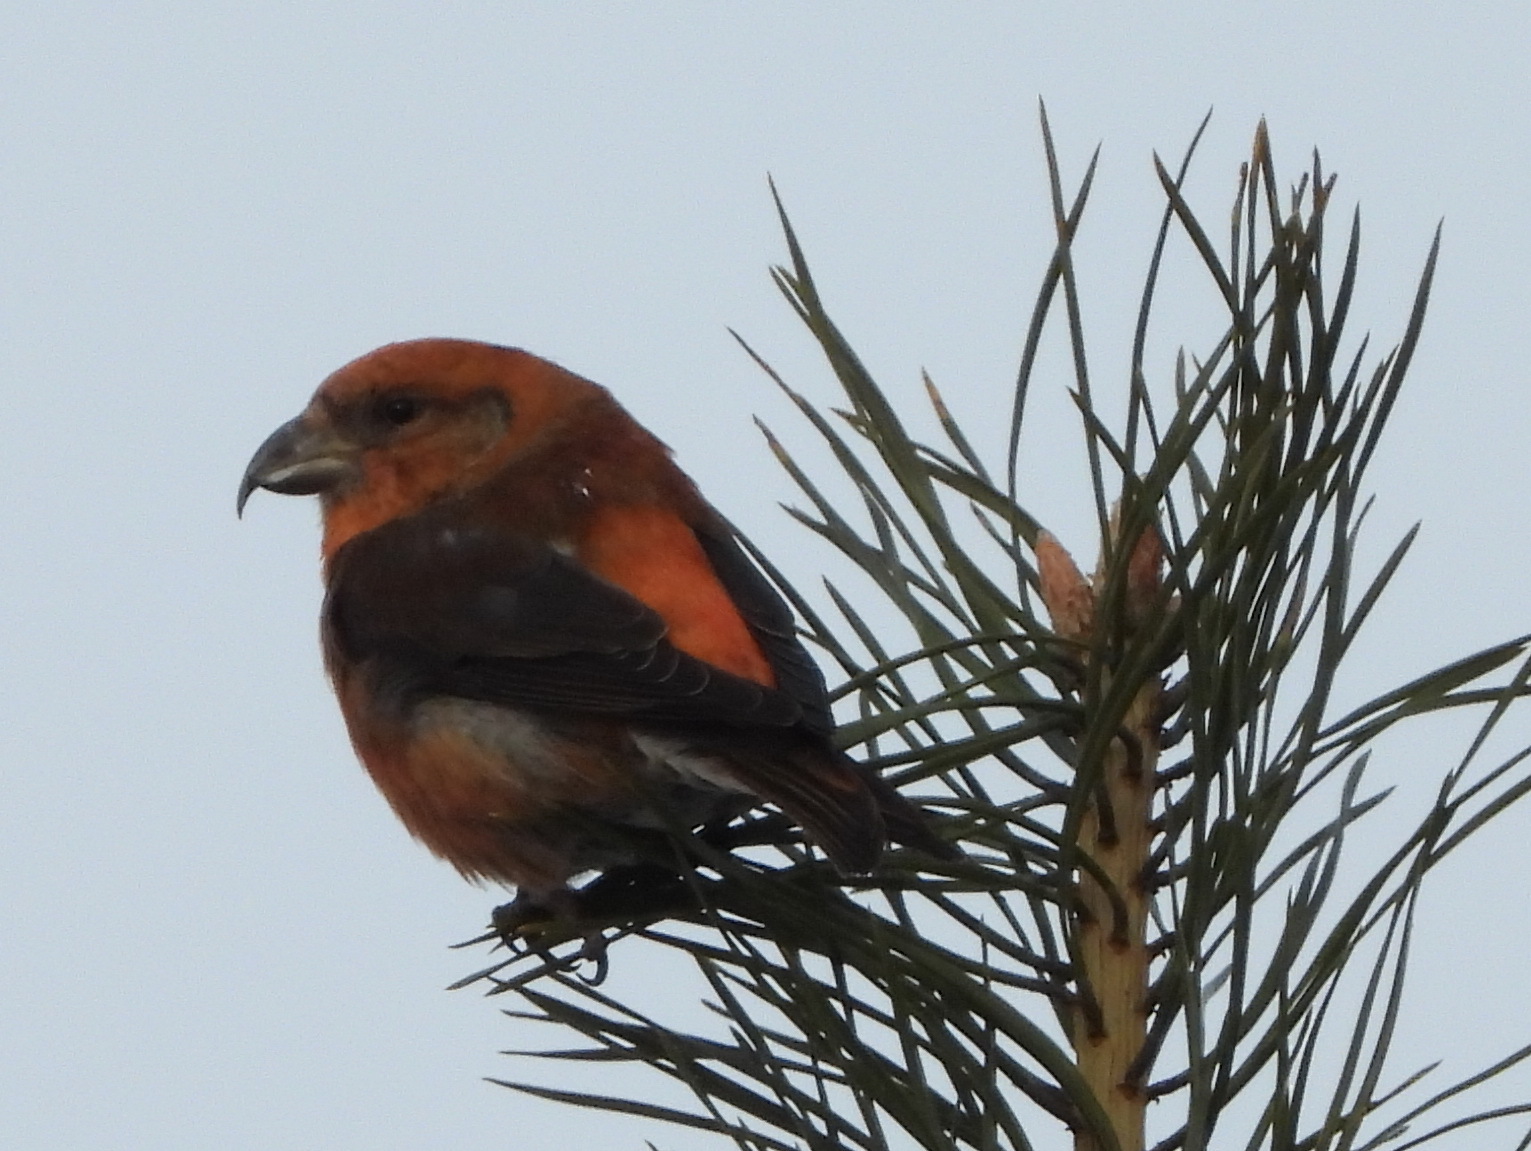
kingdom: Animalia
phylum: Chordata
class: Aves
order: Passeriformes
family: Fringillidae
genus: Loxia
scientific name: Loxia curvirostra
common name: Red crossbill
